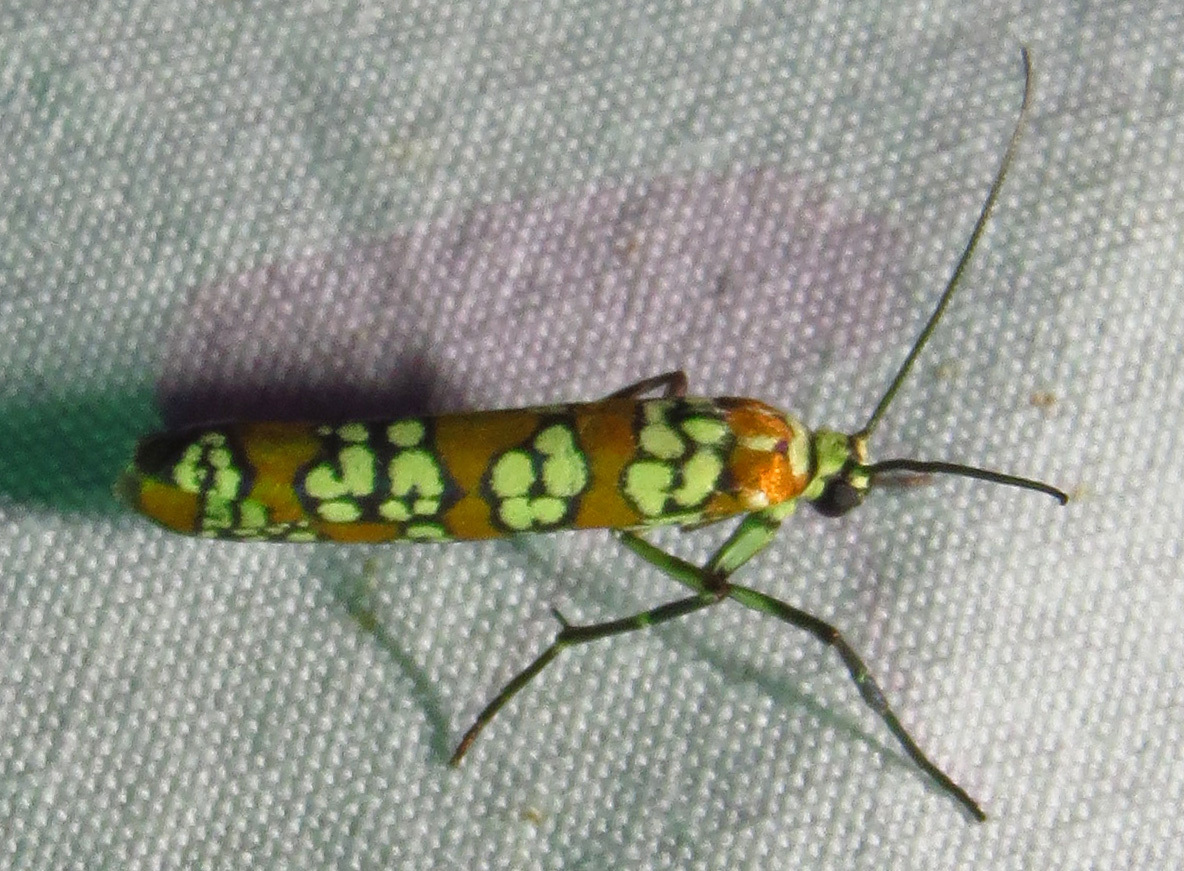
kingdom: Animalia
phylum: Arthropoda
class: Insecta
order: Lepidoptera
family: Attevidae
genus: Atteva
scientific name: Atteva punctella
